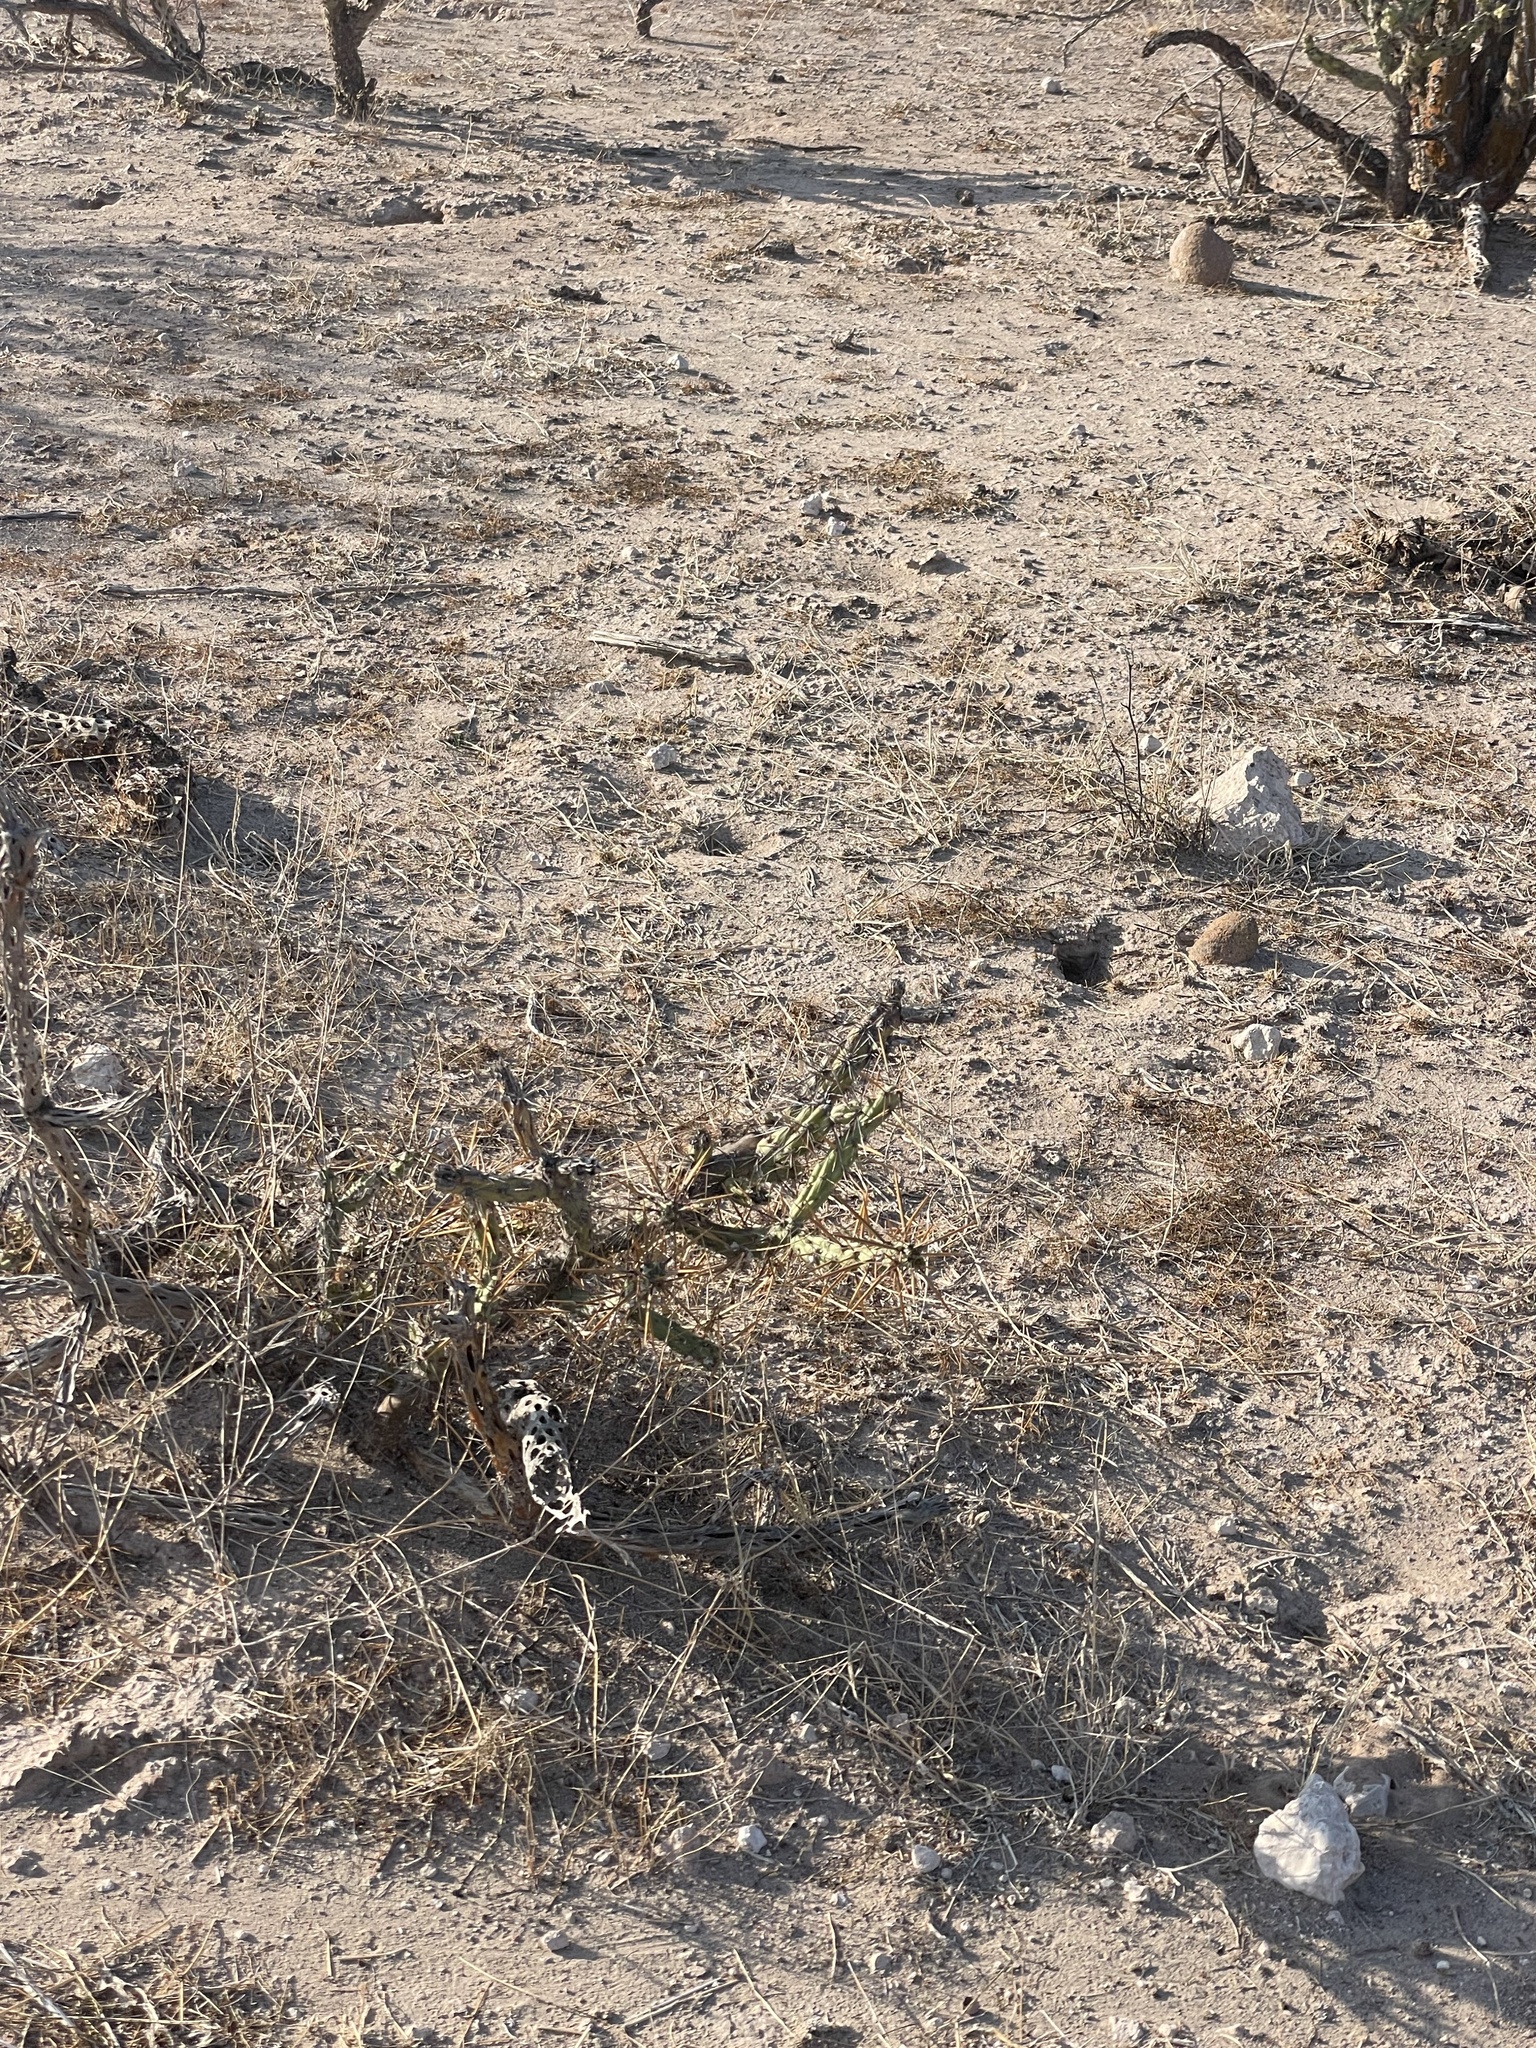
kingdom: Plantae
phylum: Tracheophyta
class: Magnoliopsida
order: Caryophyllales
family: Cactaceae
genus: Cylindropuntia
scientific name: Cylindropuntia molesta
